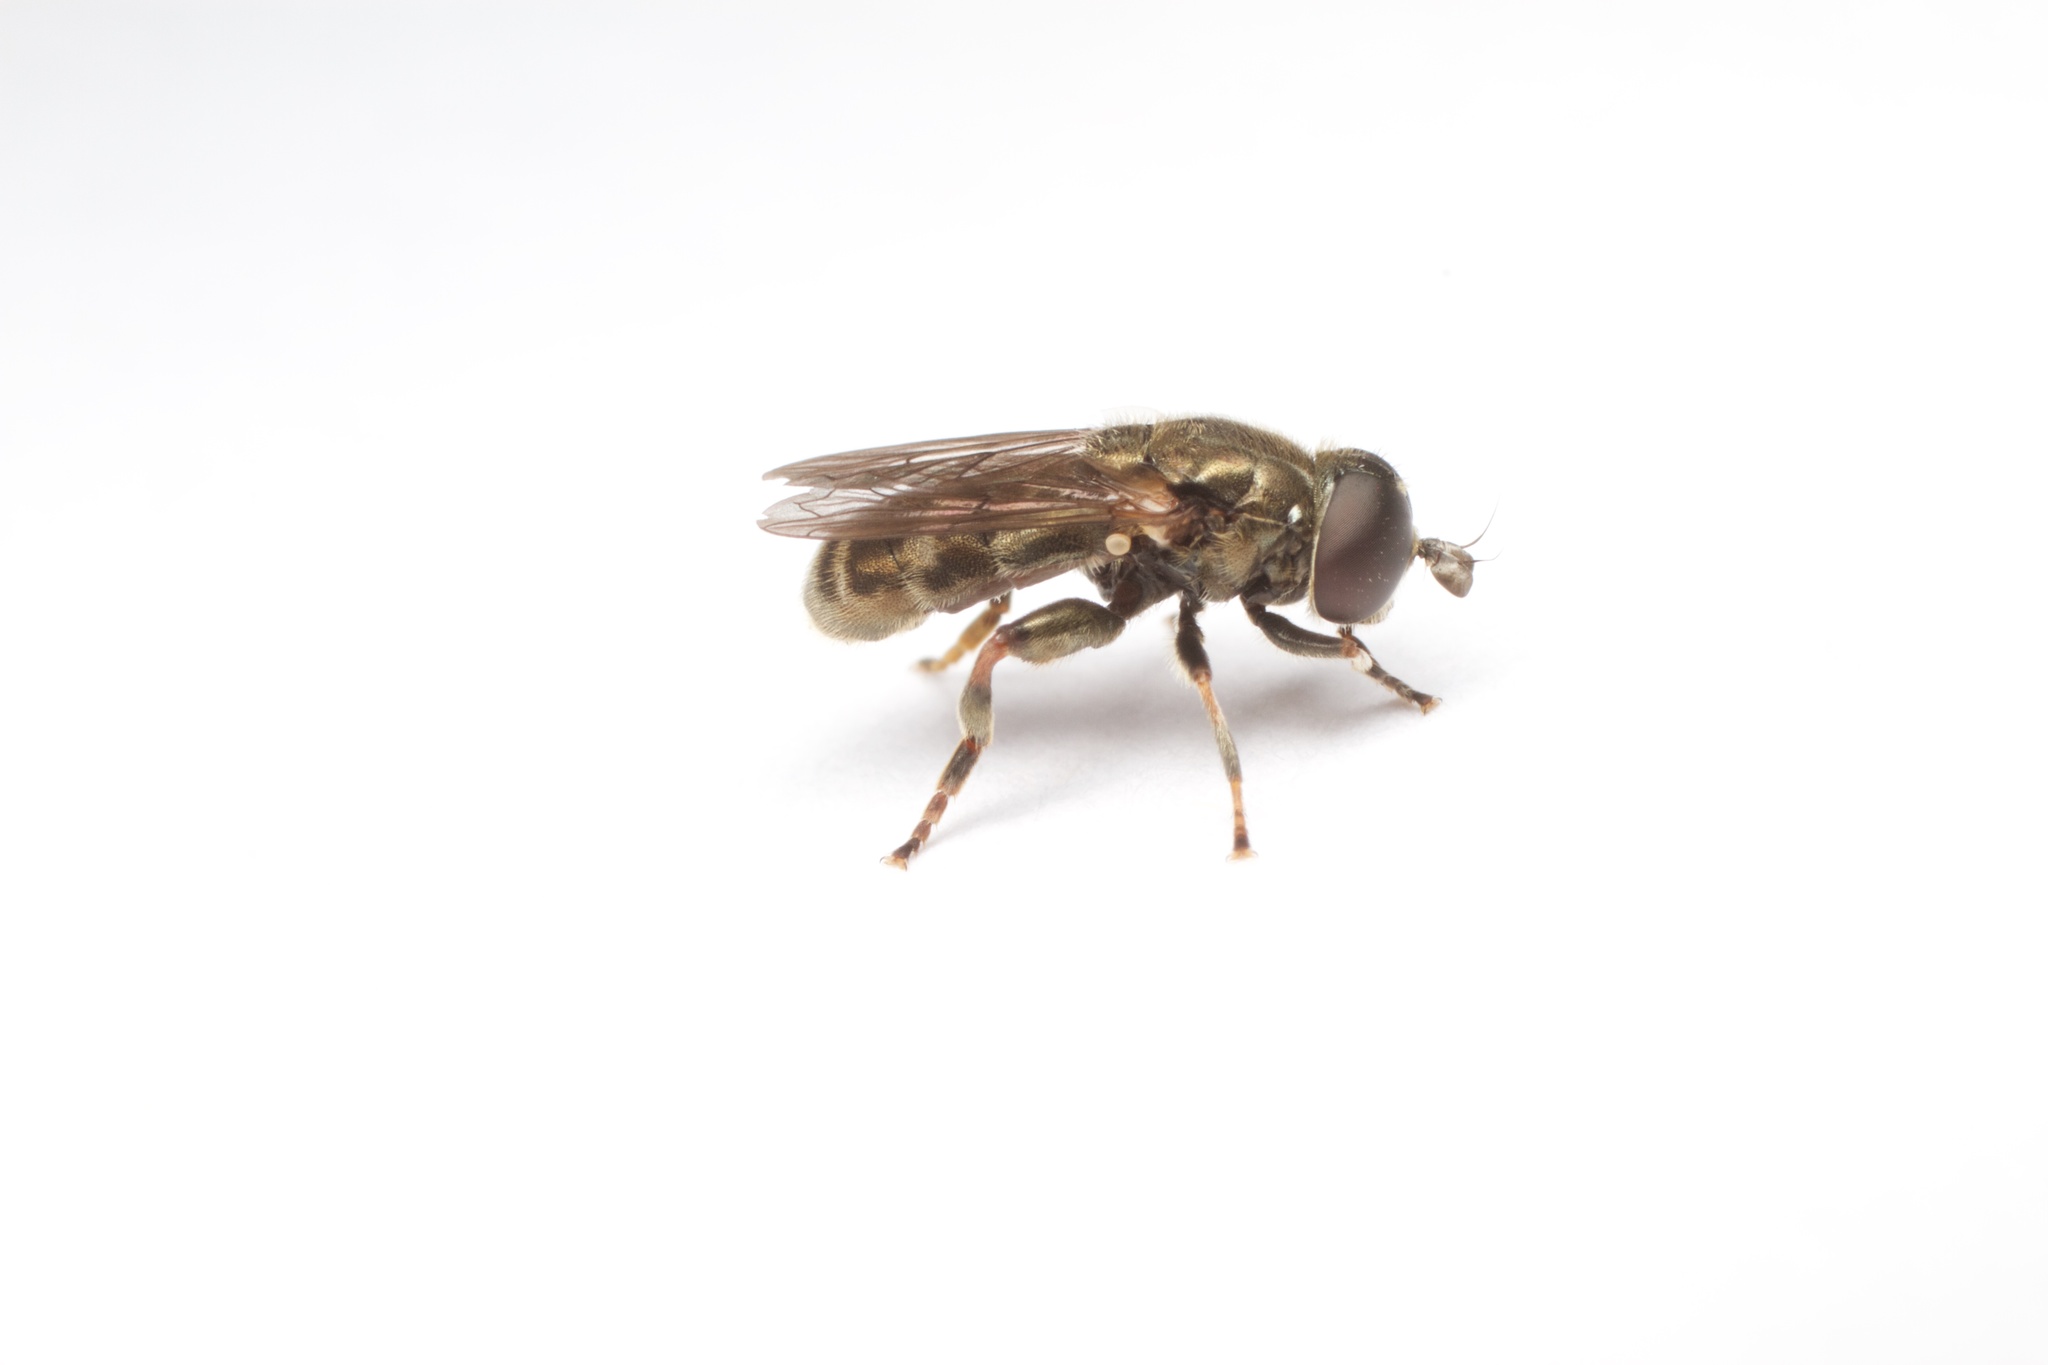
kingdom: Animalia
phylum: Arthropoda
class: Insecta
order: Diptera
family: Syrphidae
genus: Eumerus
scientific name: Eumerus funeralis
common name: Lesser bulb-fly
